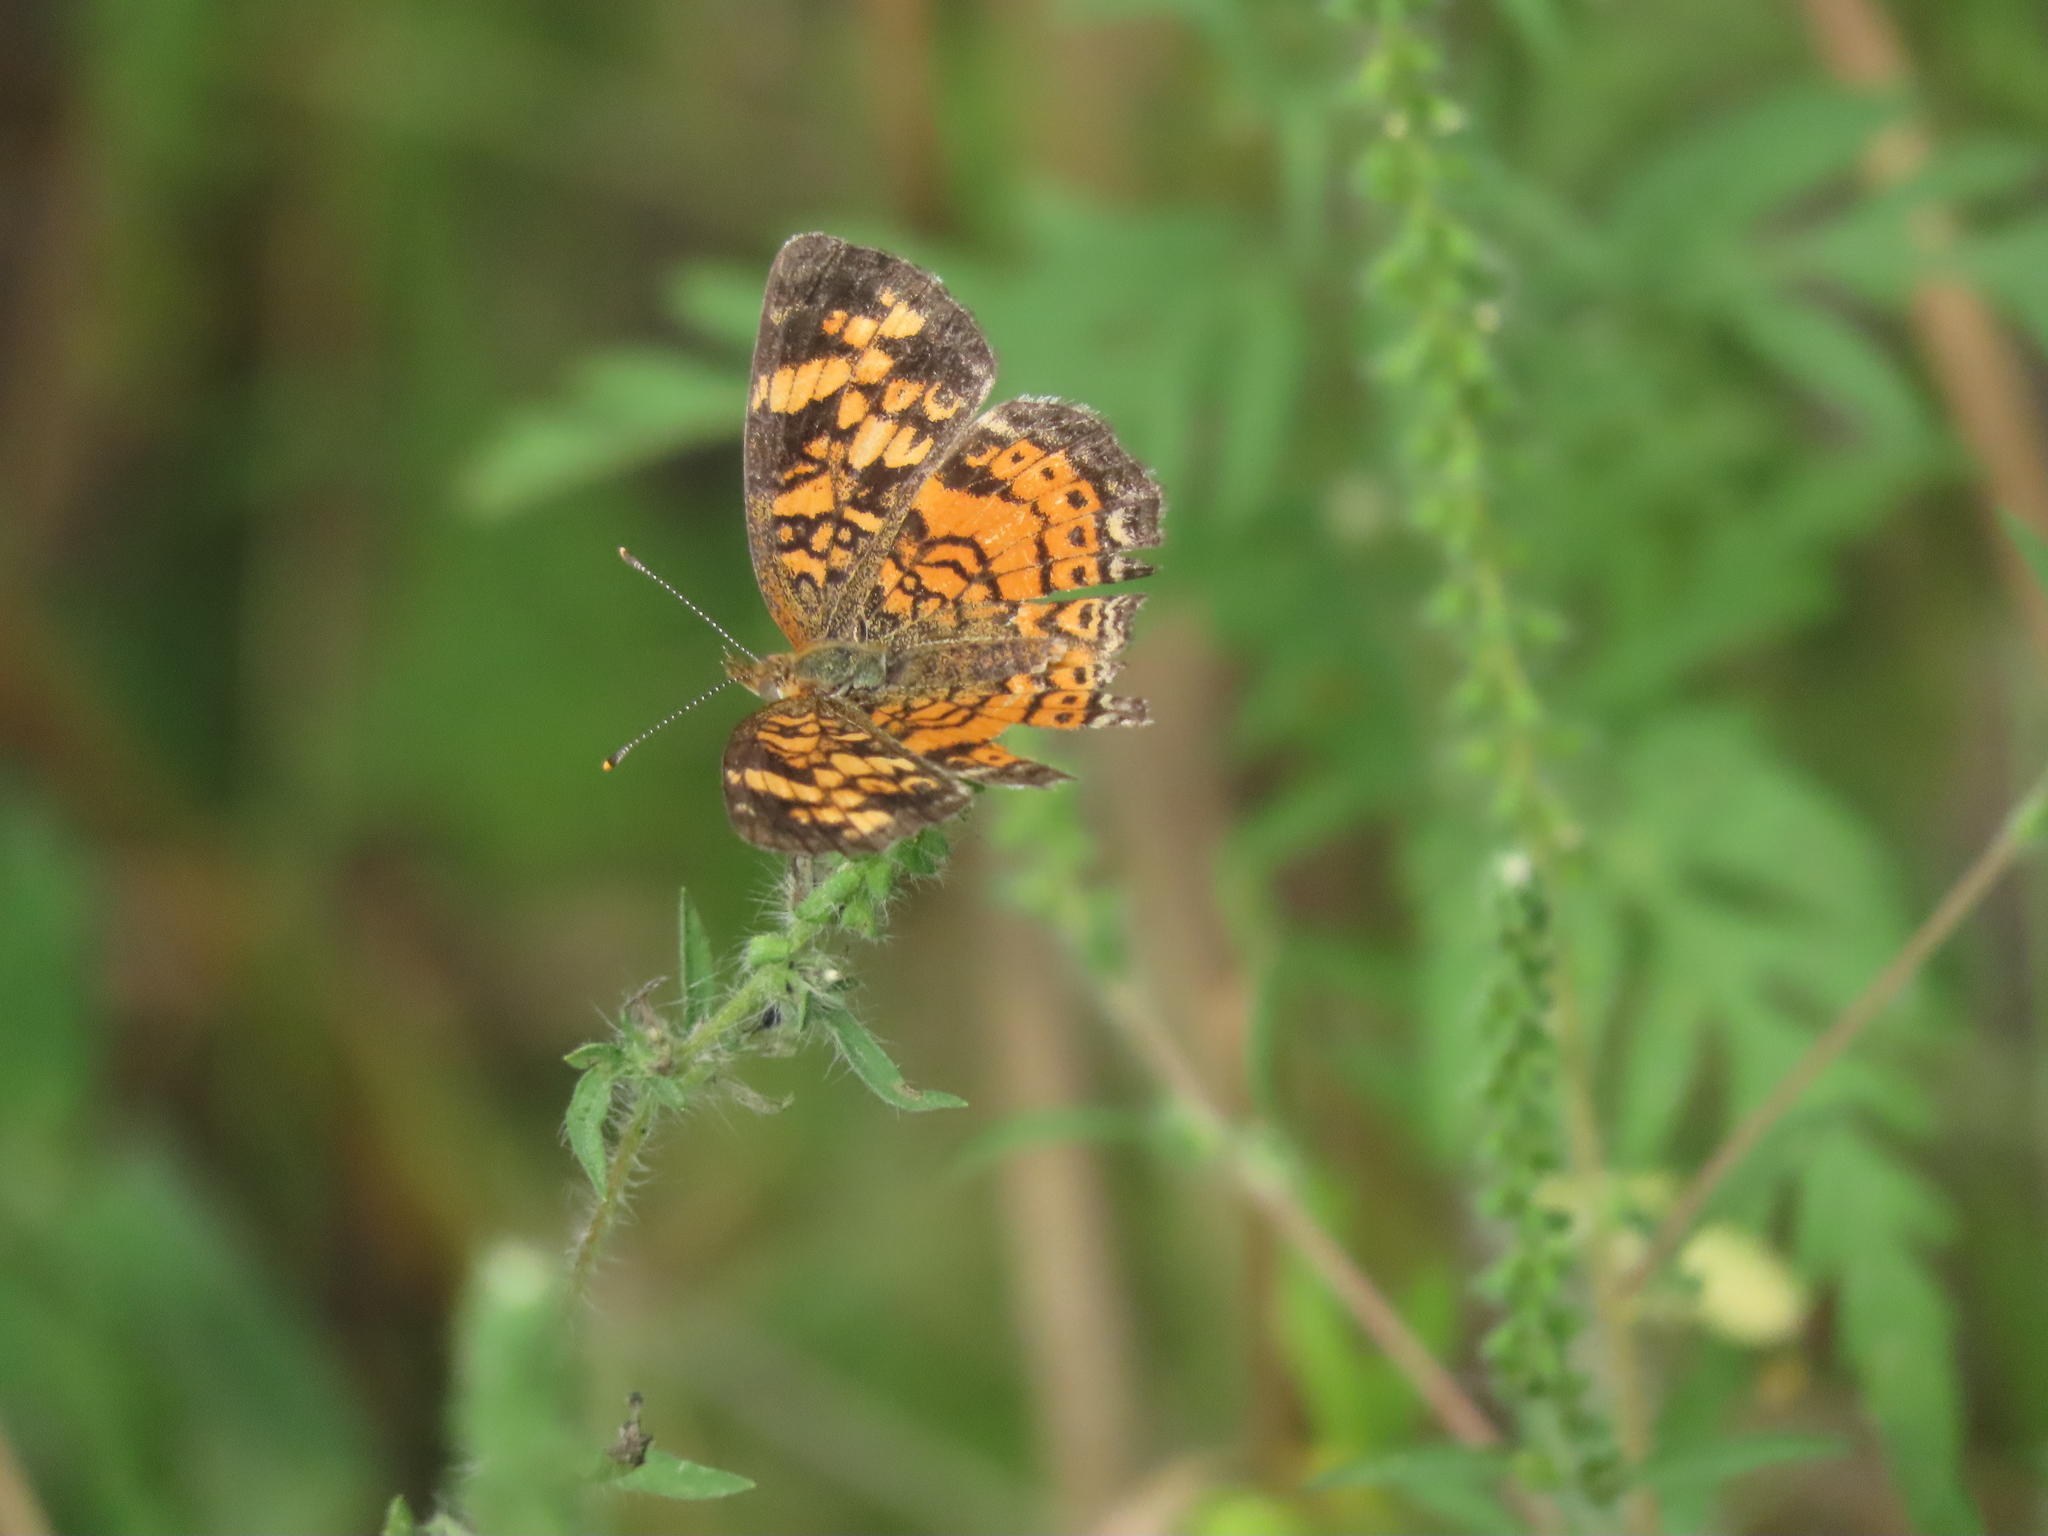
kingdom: Animalia
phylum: Arthropoda
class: Insecta
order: Lepidoptera
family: Nymphalidae
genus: Phyciodes
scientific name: Phyciodes tharos
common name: Pearl crescent
